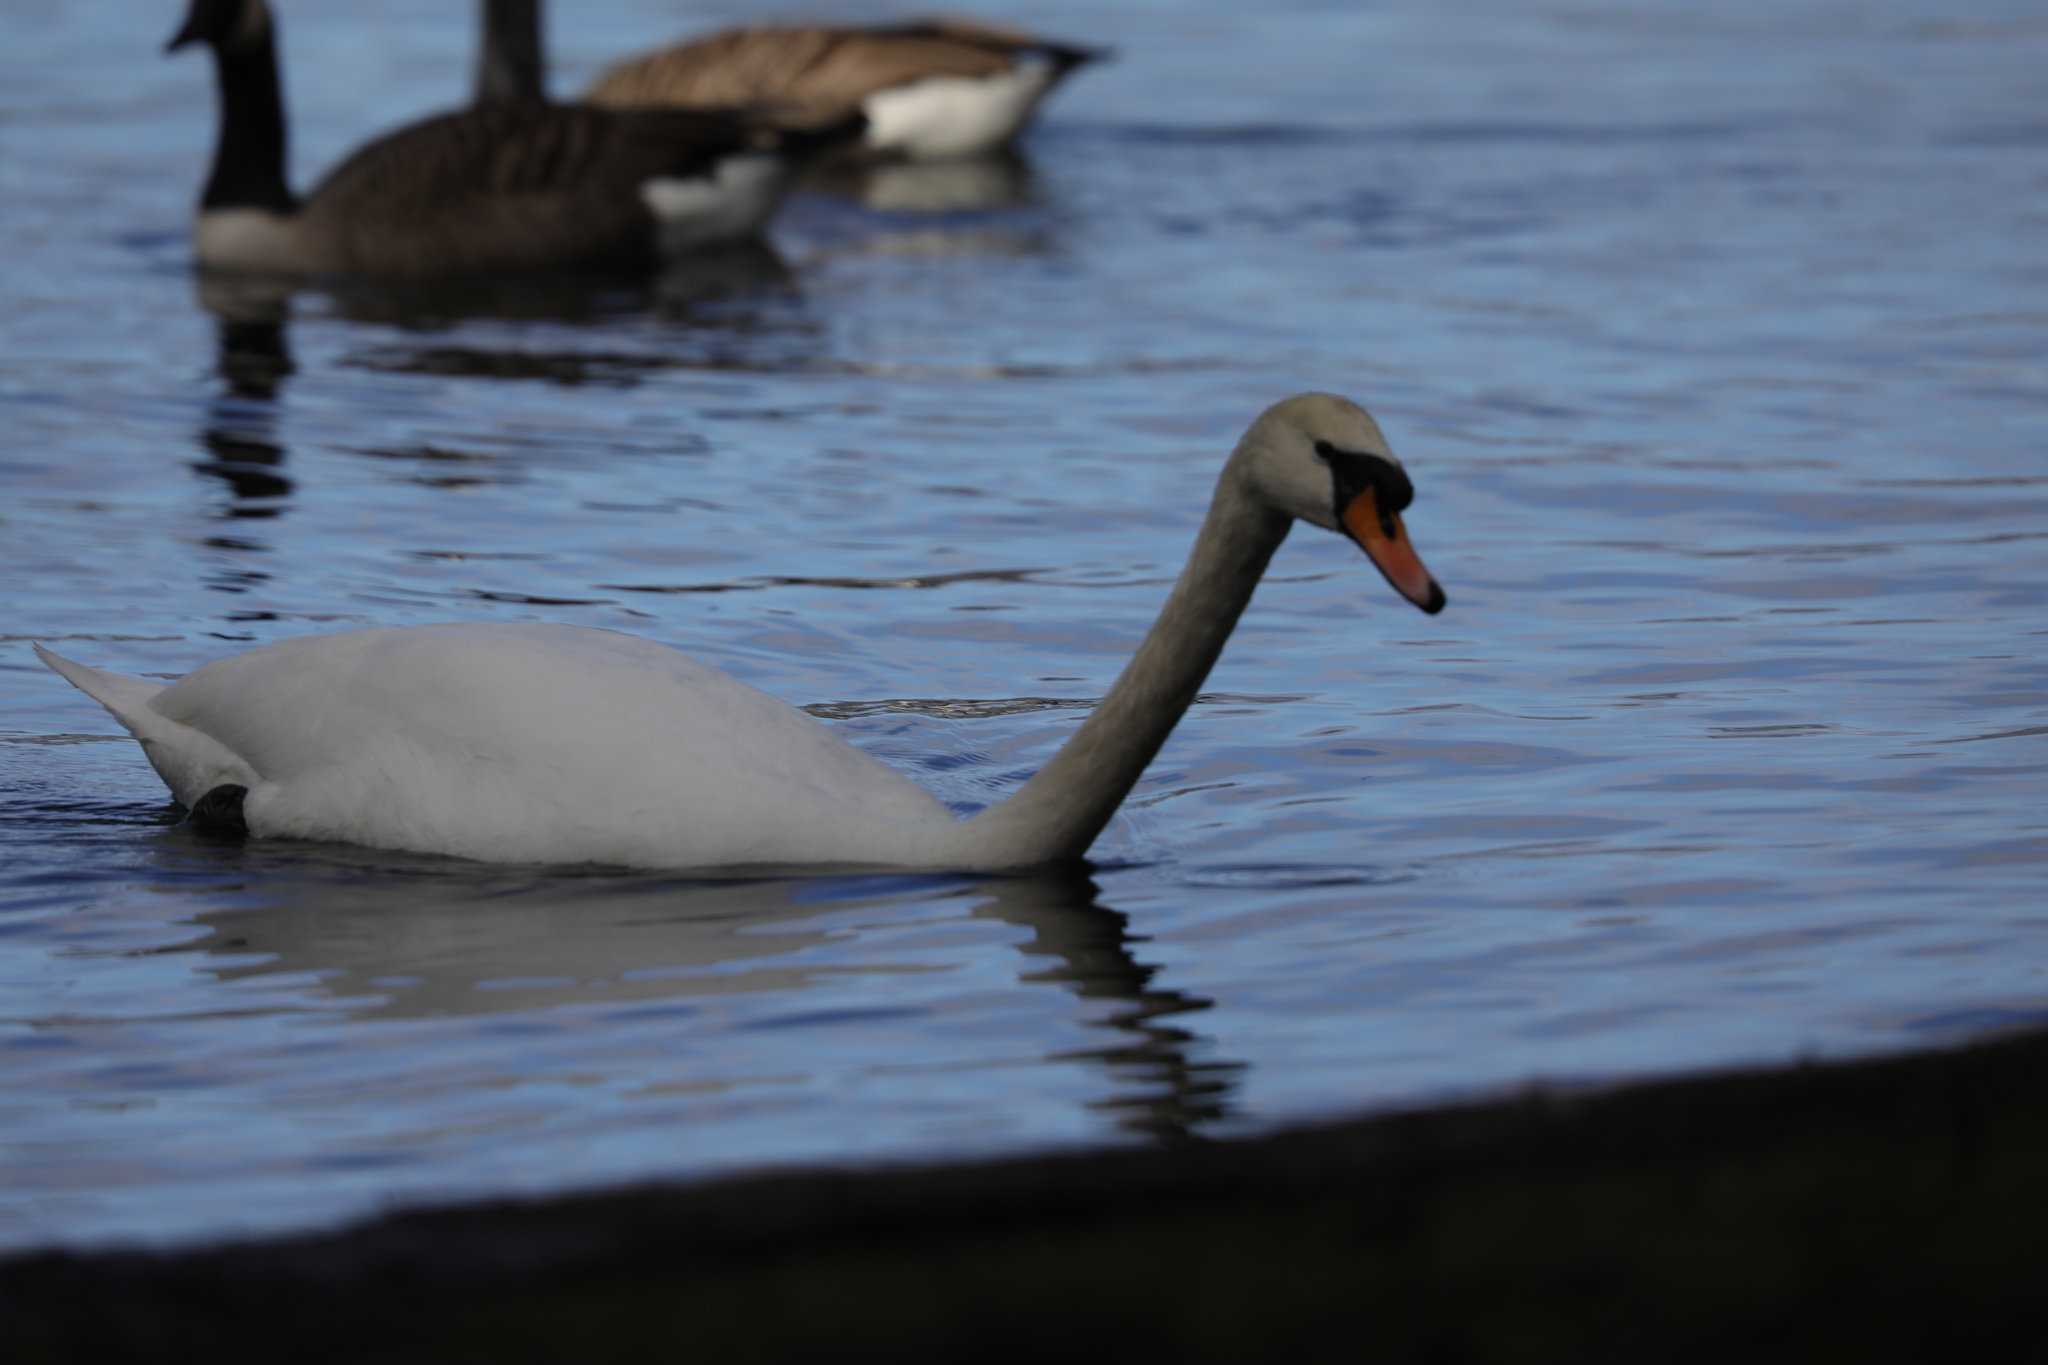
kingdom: Animalia
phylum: Chordata
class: Aves
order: Anseriformes
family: Anatidae
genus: Cygnus
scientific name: Cygnus olor
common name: Mute swan
